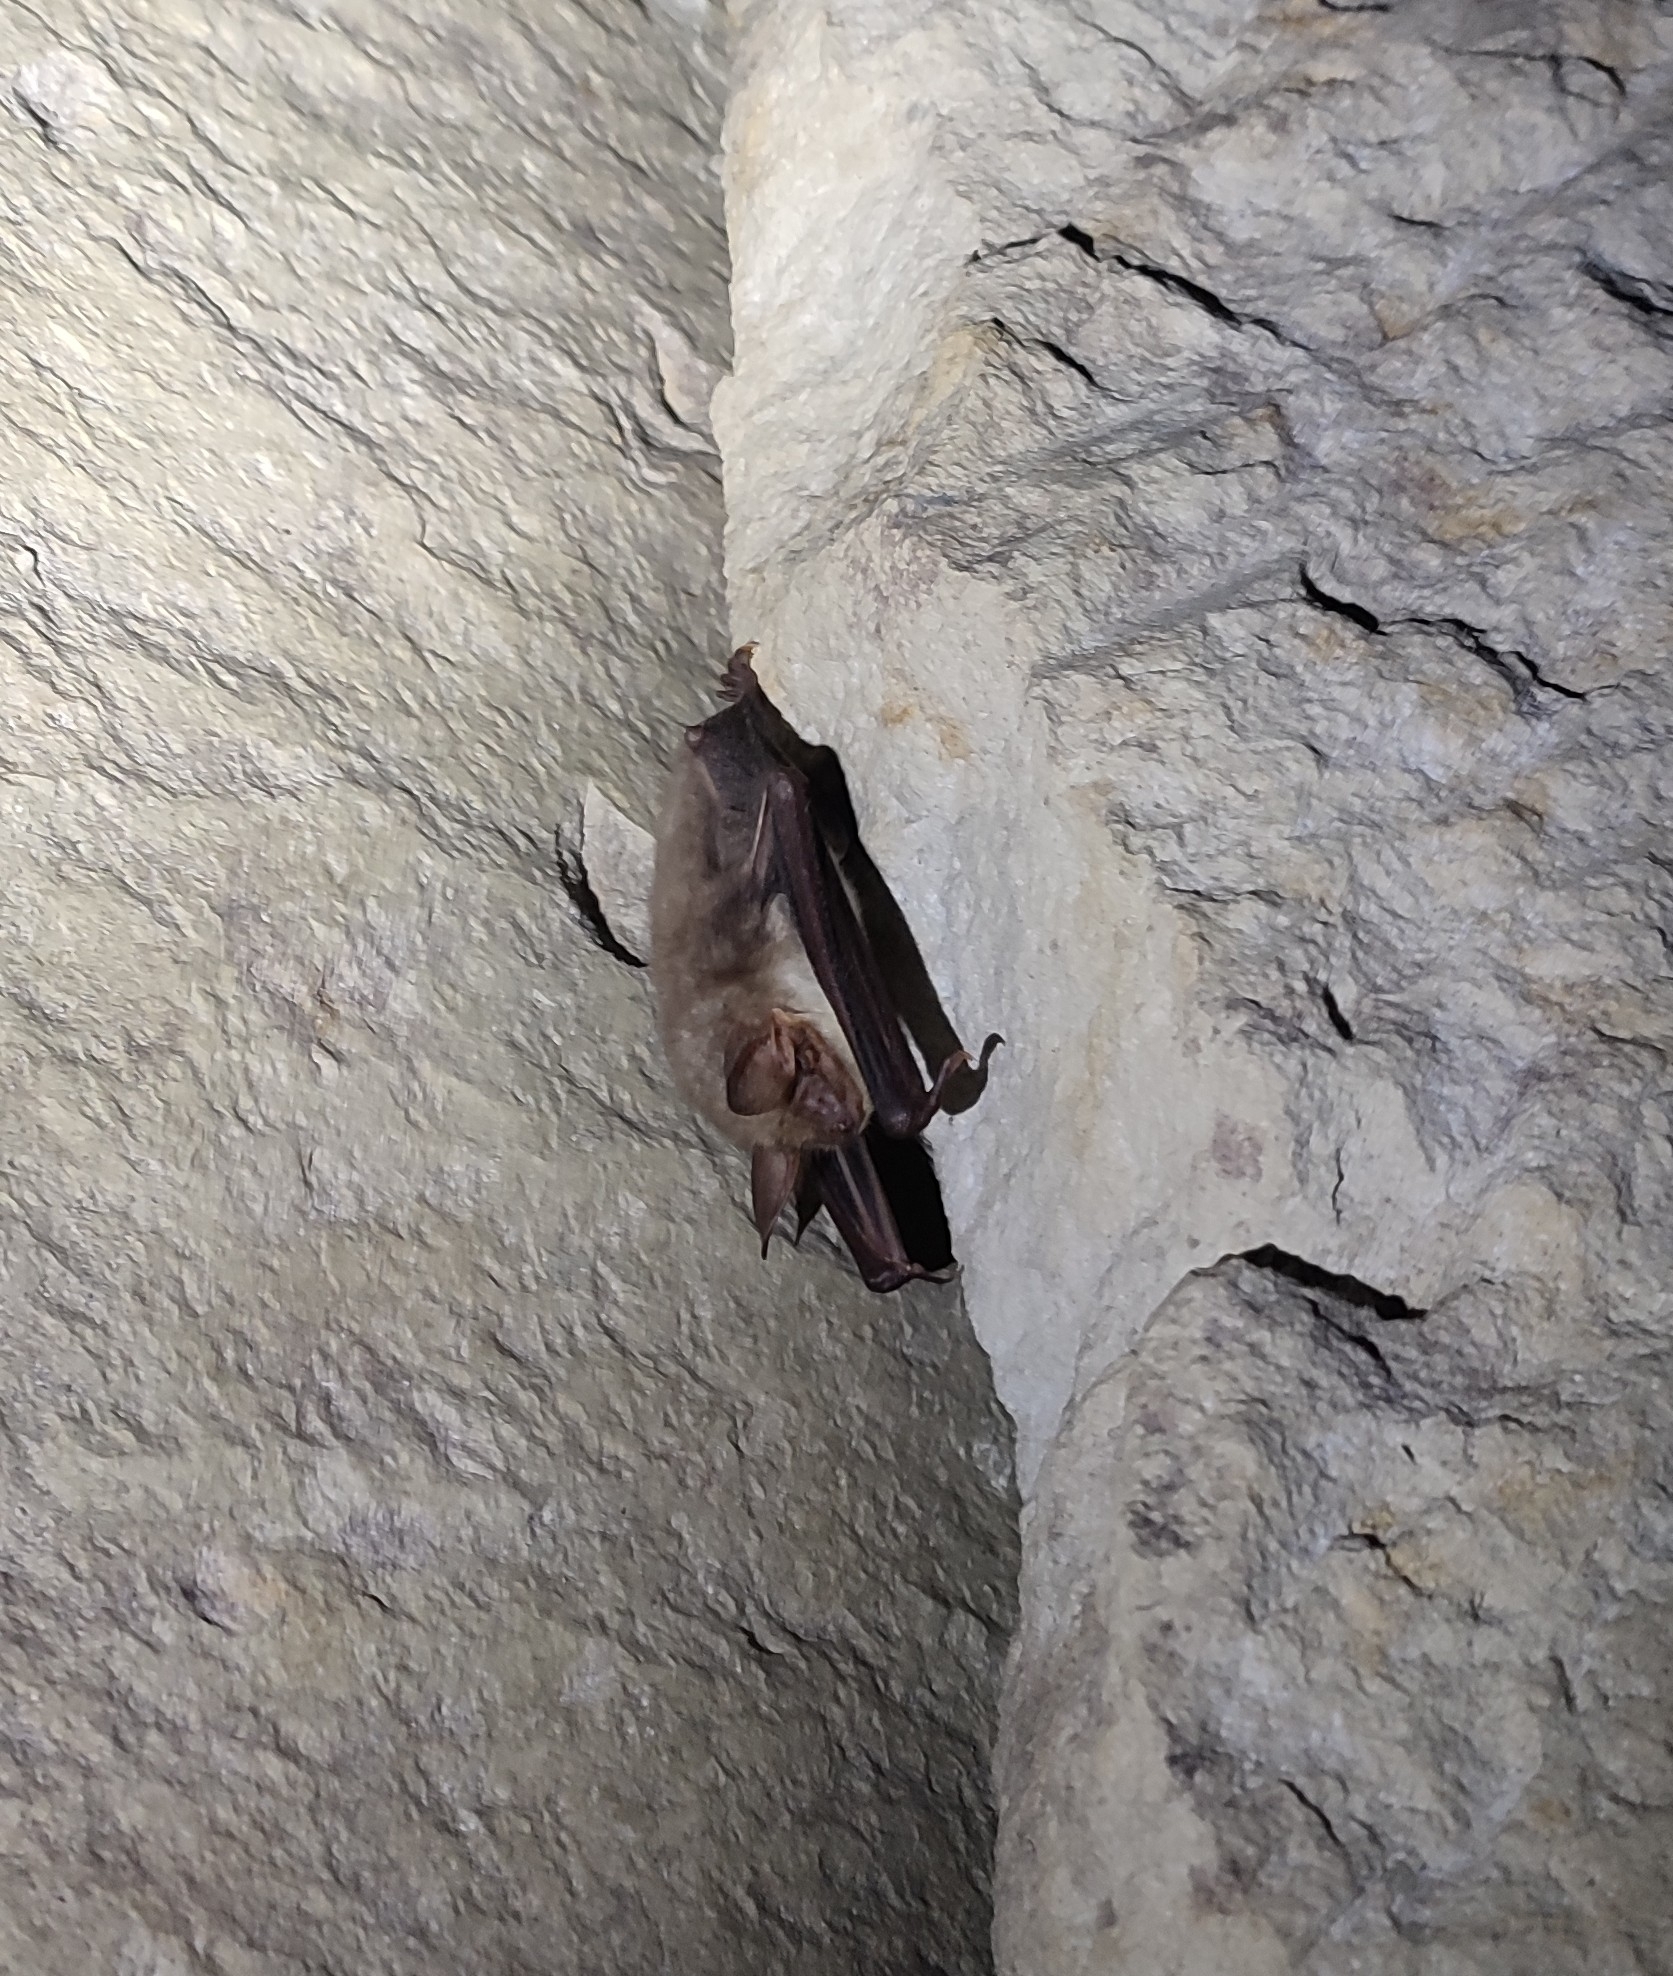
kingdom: Animalia
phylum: Chordata
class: Mammalia
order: Chiroptera
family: Vespertilionidae
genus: Myotis
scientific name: Myotis myotis
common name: Greater mouse-eared bat
